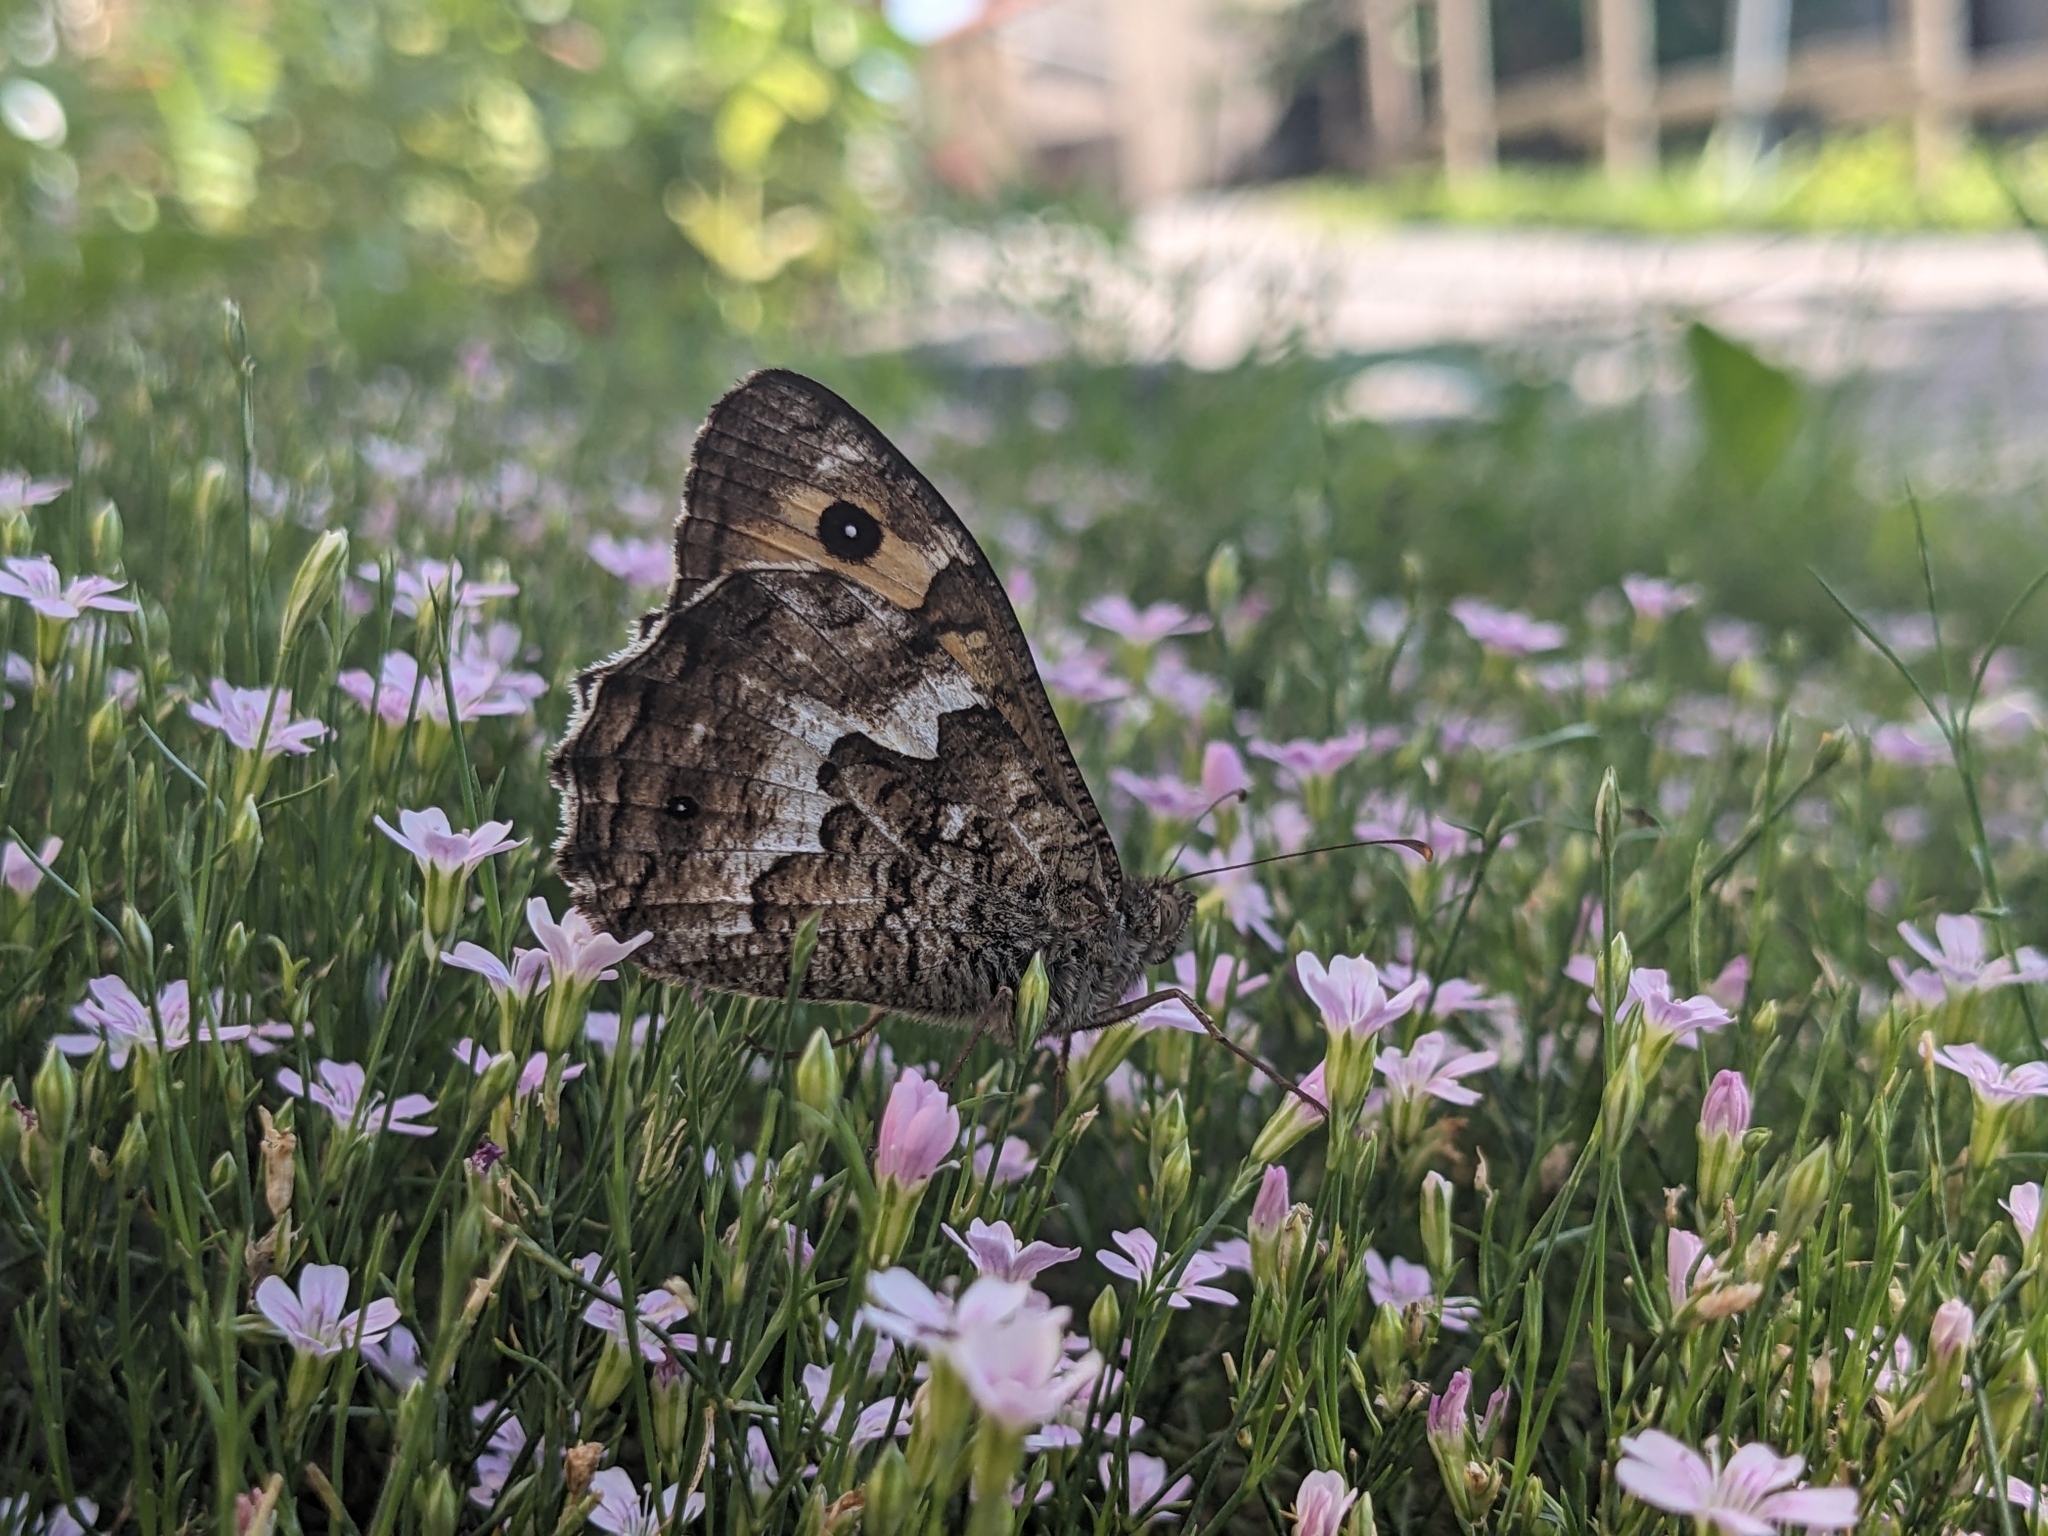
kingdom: Animalia
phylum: Arthropoda
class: Insecta
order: Lepidoptera
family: Nymphalidae
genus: Hipparchia
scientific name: Hipparchia semele
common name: Grayling
